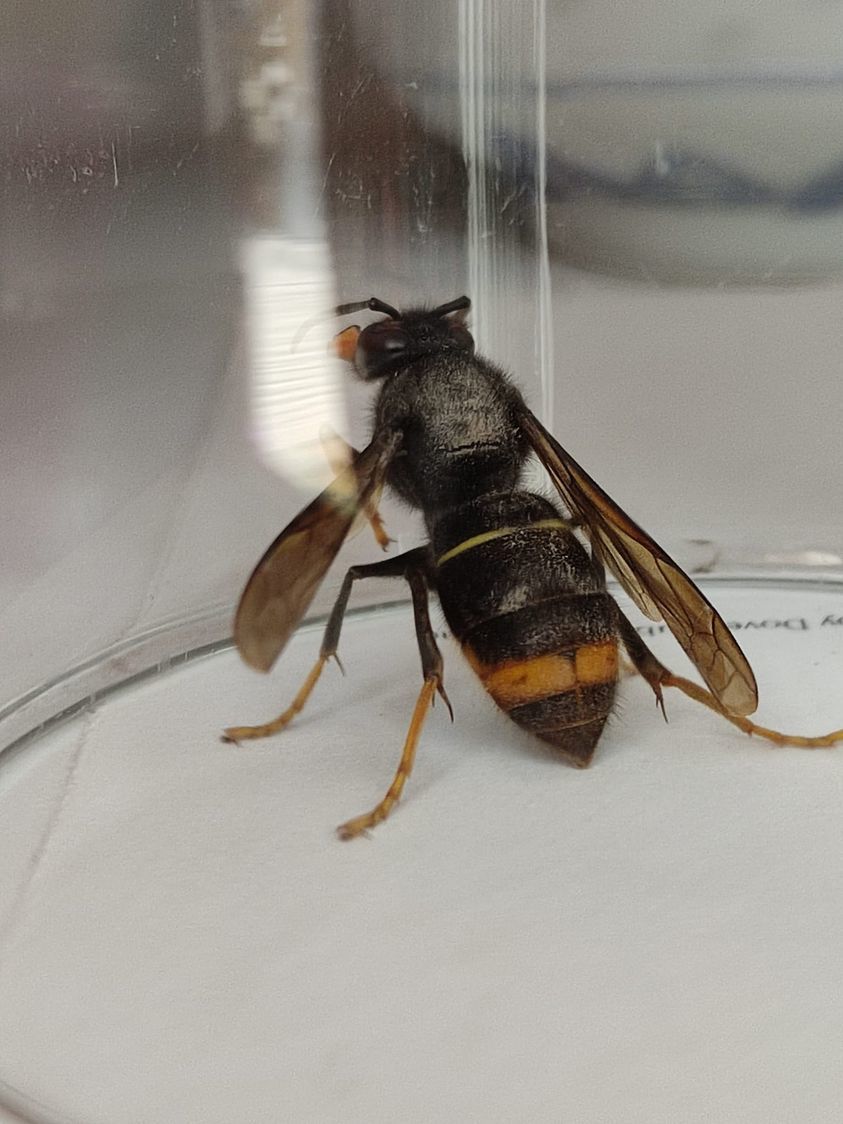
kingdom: Animalia
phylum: Arthropoda
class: Insecta
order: Hymenoptera
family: Vespidae
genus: Vespa
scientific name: Vespa velutina
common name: Asian hornet
